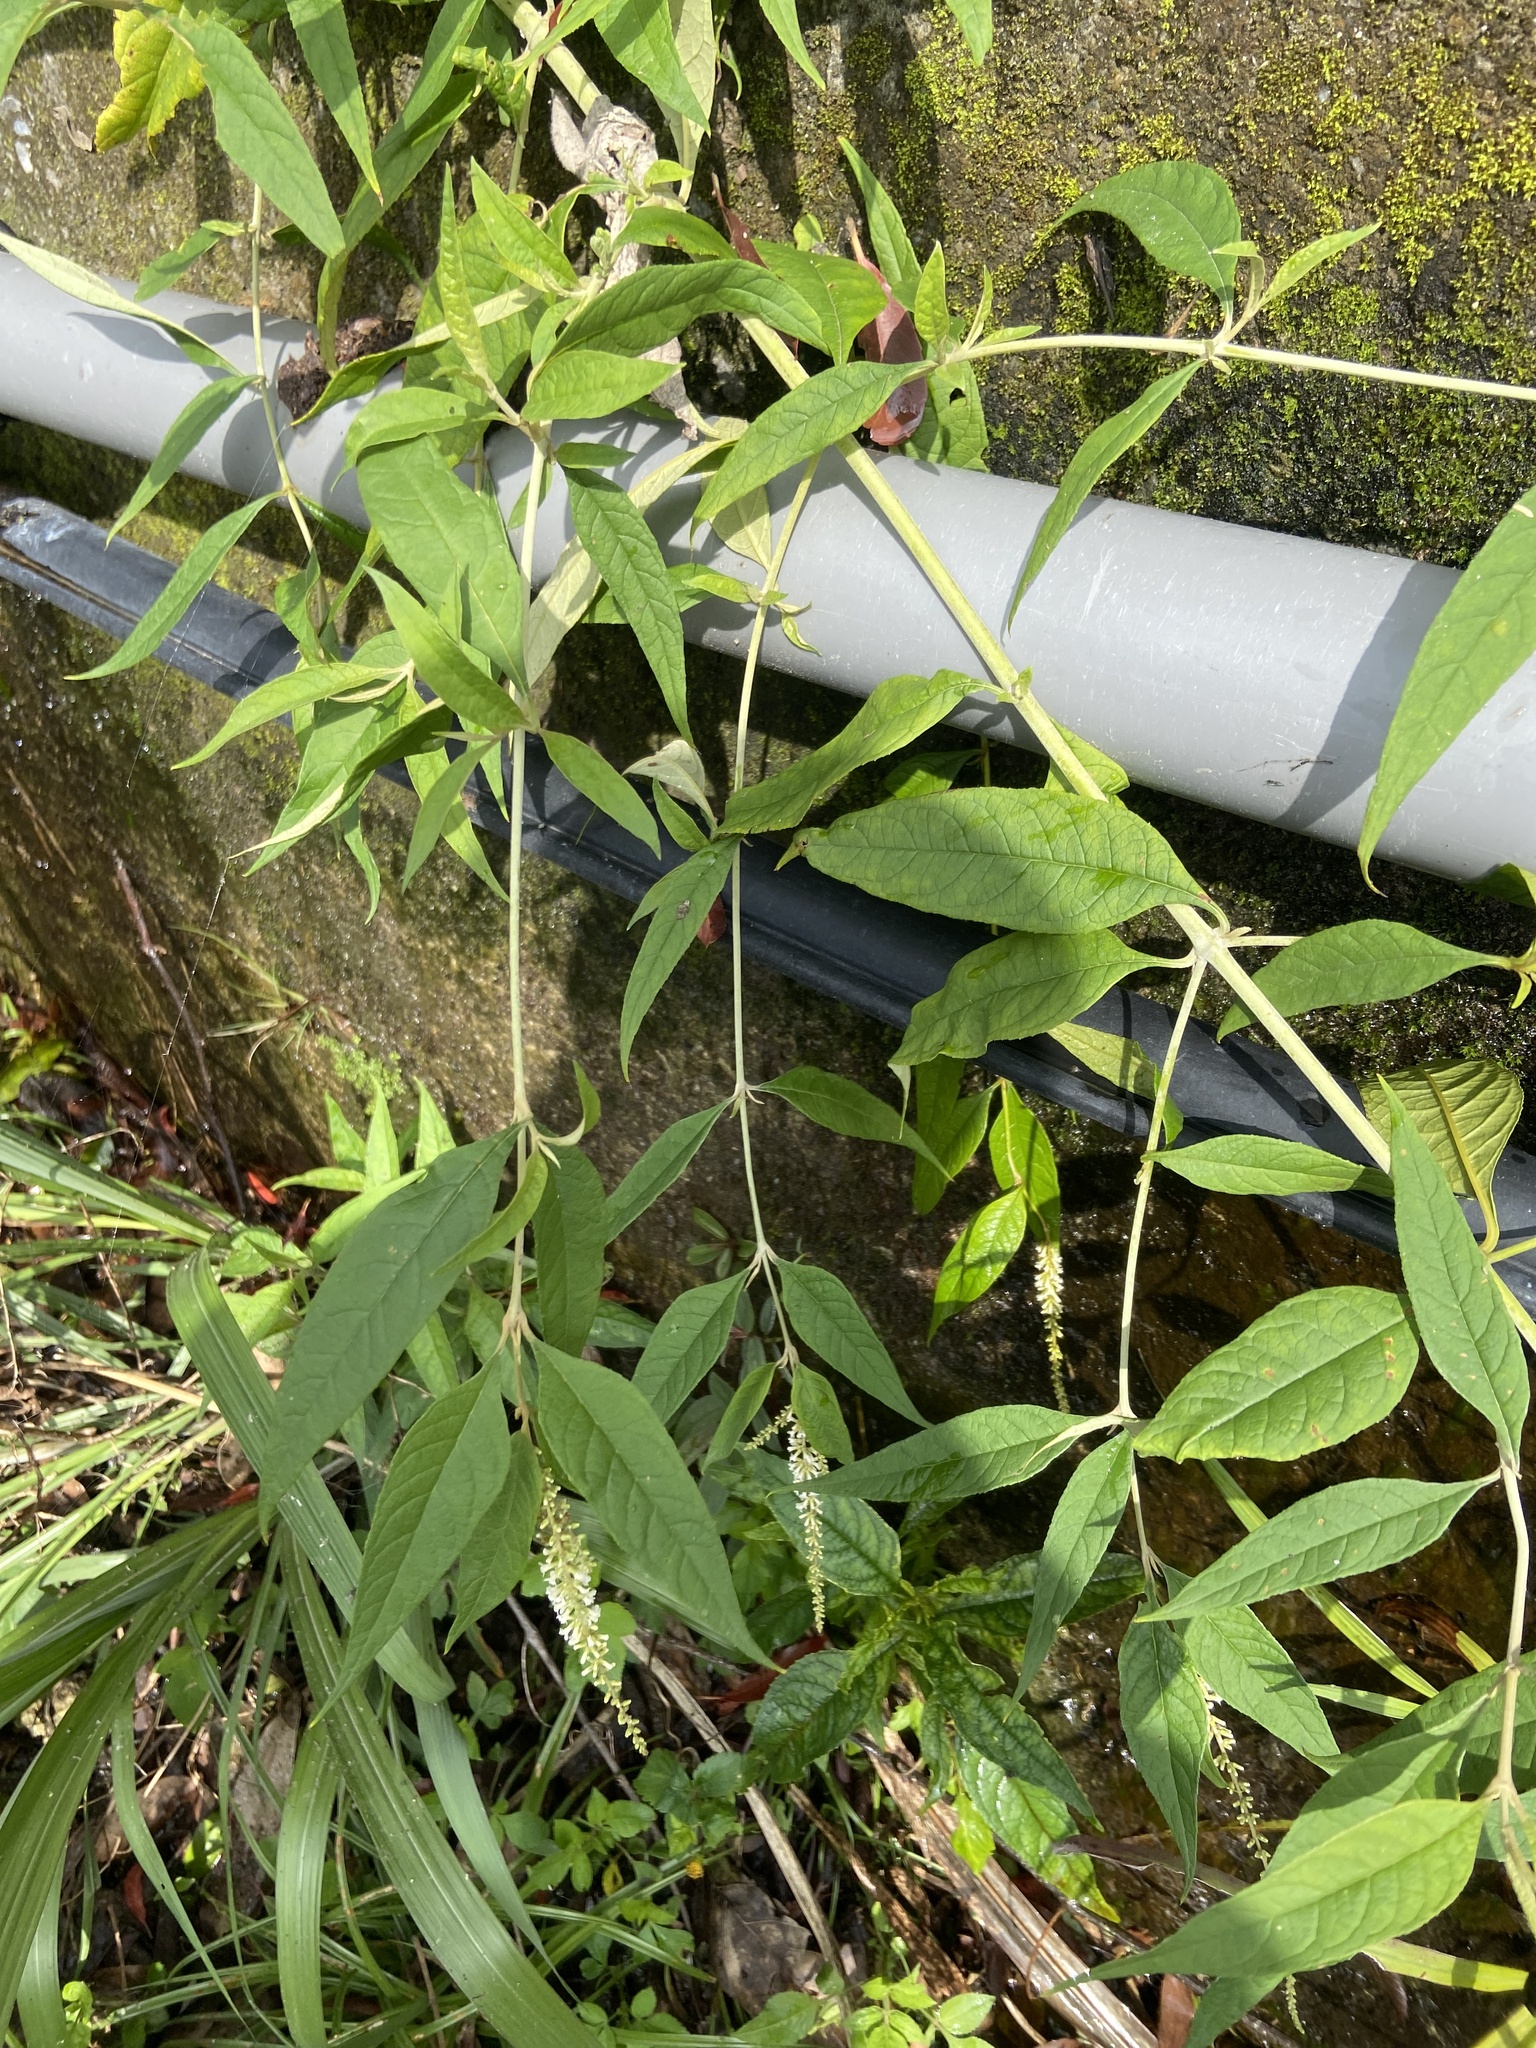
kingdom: Plantae
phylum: Tracheophyta
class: Magnoliopsida
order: Lamiales
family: Scrophulariaceae
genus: Buddleja
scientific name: Buddleja asiatica
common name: Dog tail
